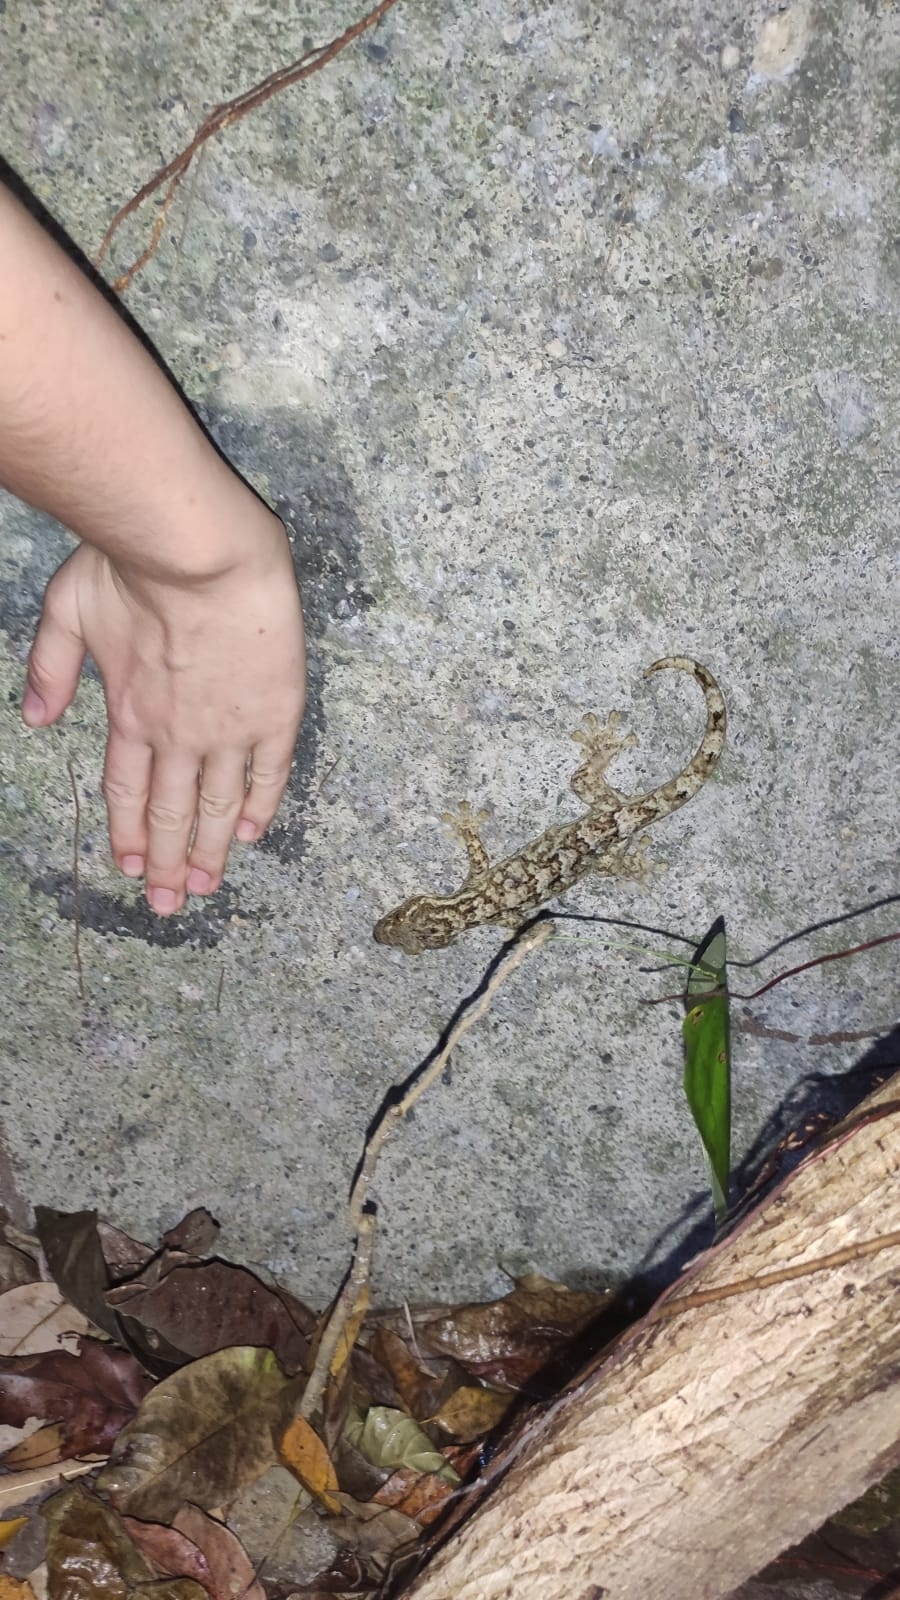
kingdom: Animalia
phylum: Chordata
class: Squamata
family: Phyllodactylidae
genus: Thecadactylus
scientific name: Thecadactylus rapicauda
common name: Turnip-tailed gecko
